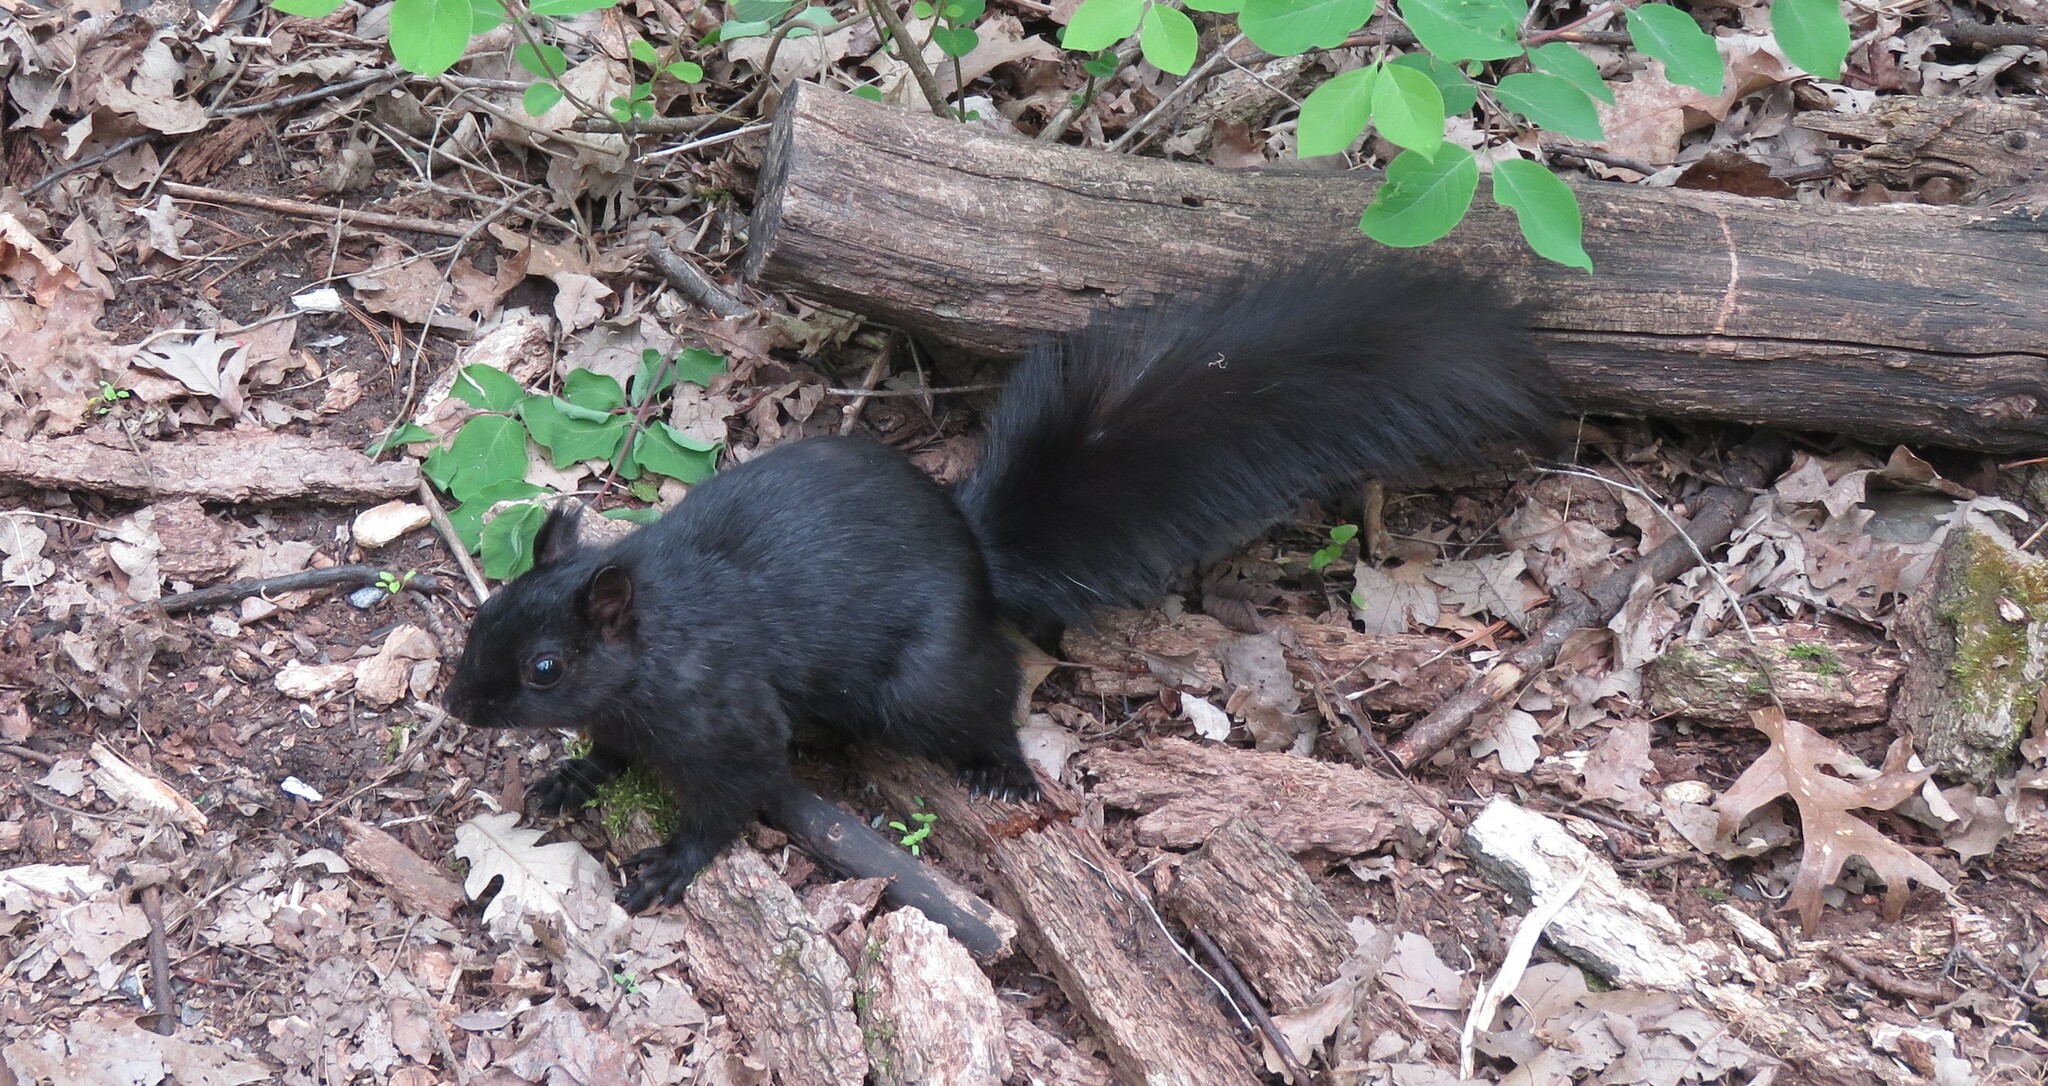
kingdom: Animalia
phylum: Chordata
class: Mammalia
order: Rodentia
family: Sciuridae
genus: Sciurus
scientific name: Sciurus carolinensis
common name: Eastern gray squirrel
